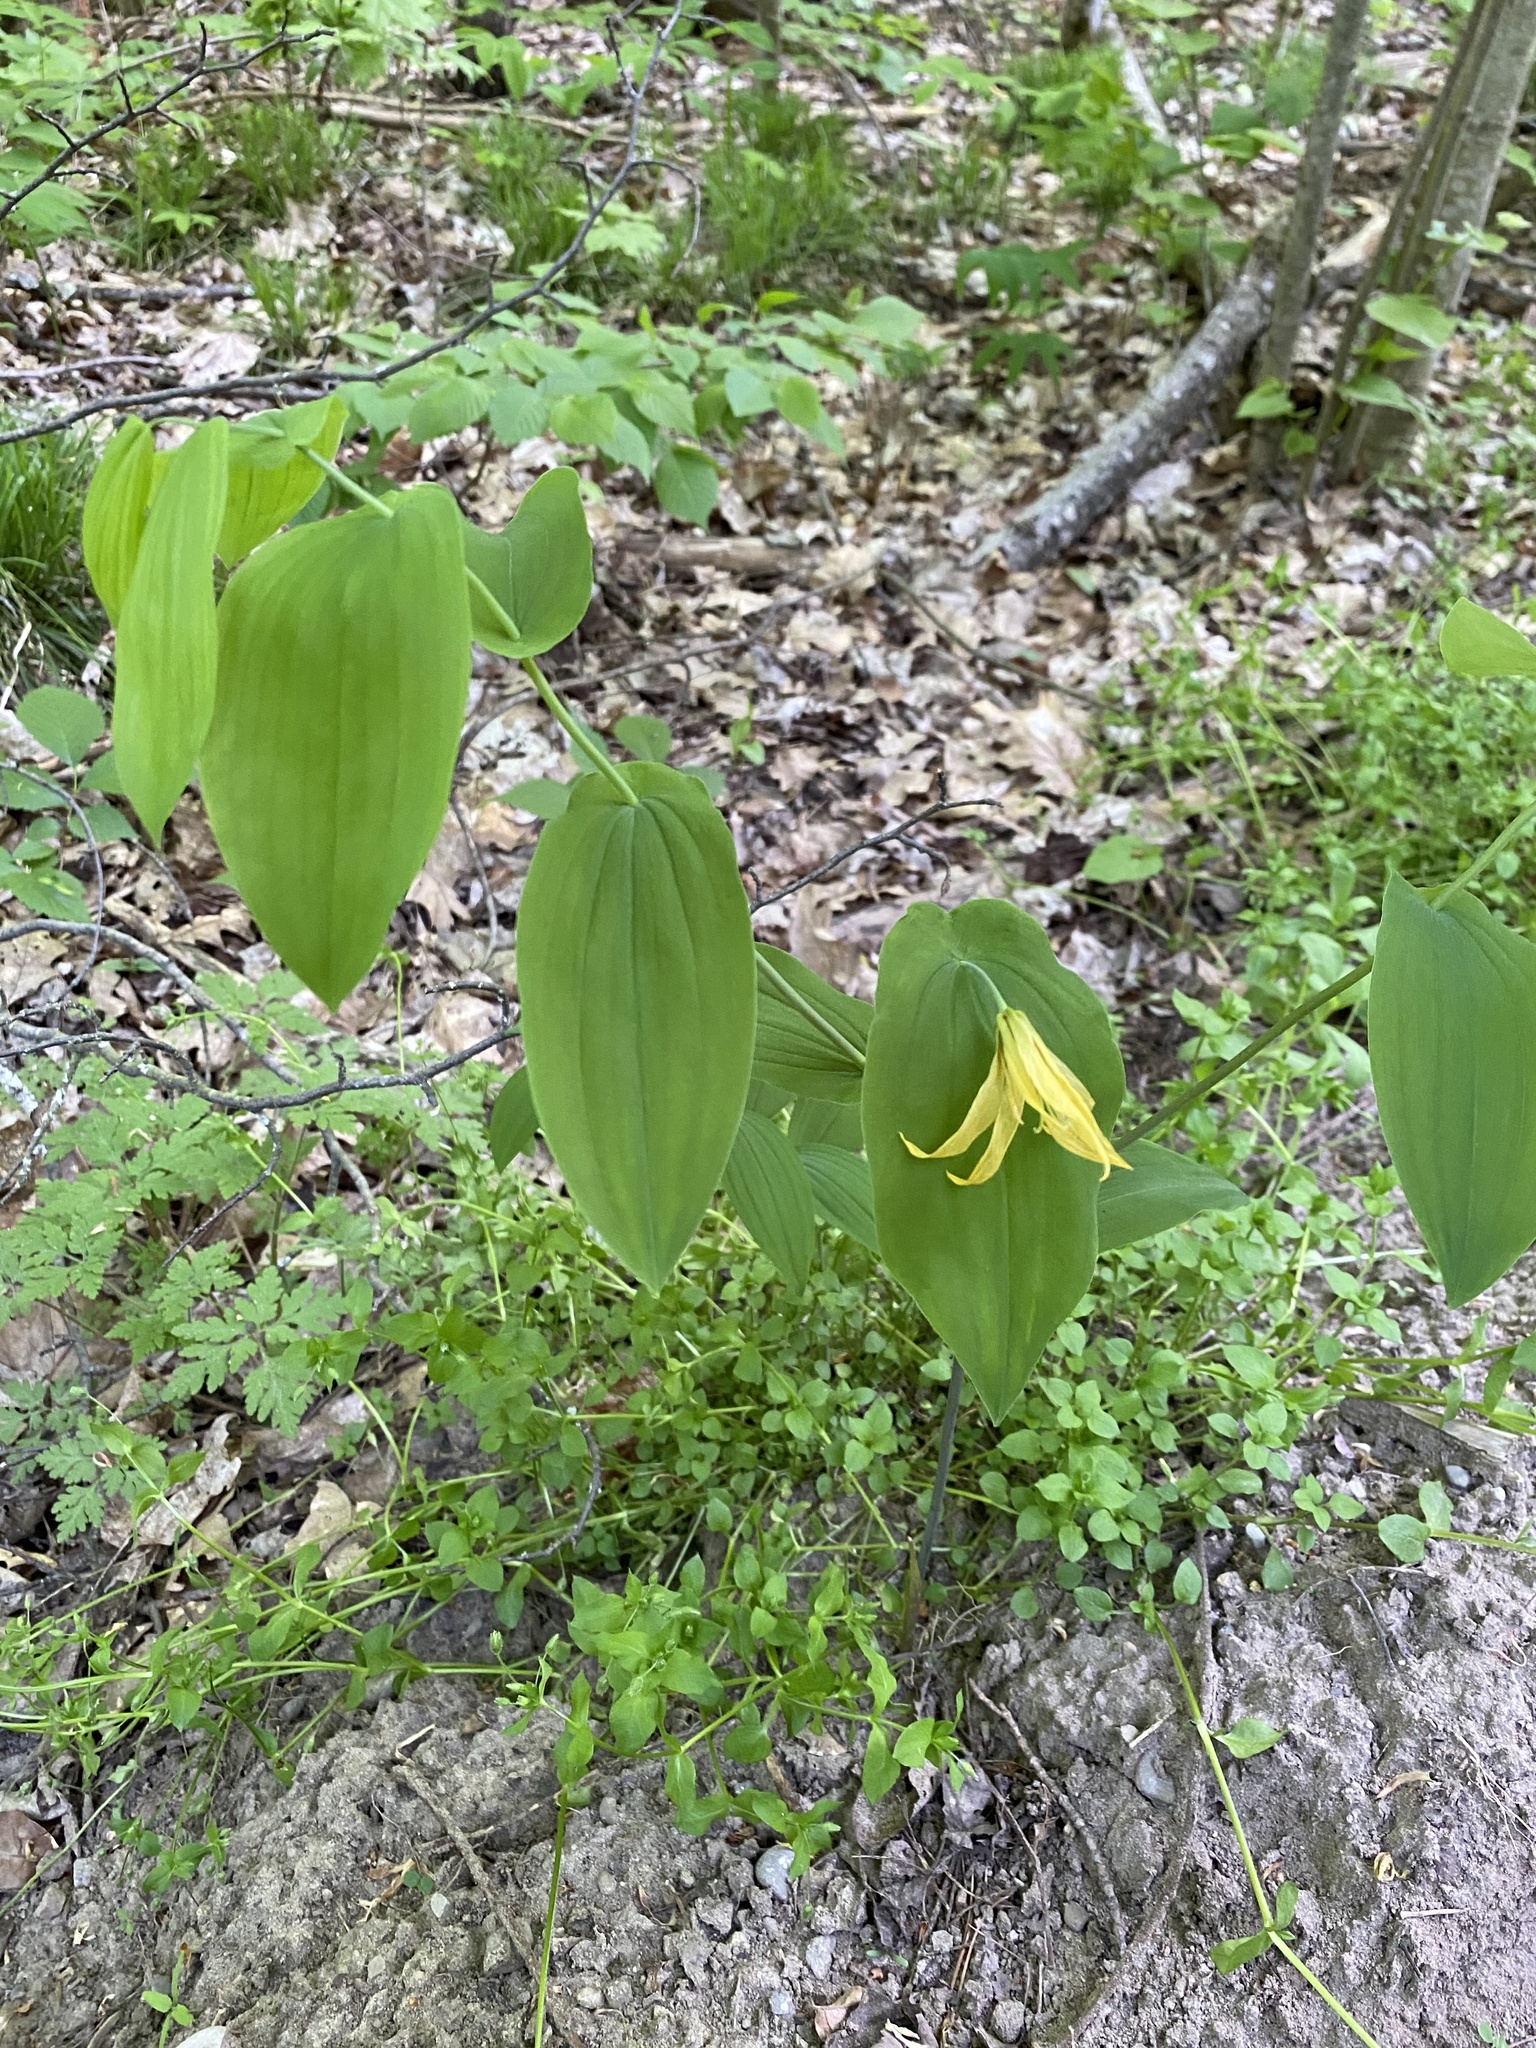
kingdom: Plantae
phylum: Tracheophyta
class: Liliopsida
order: Liliales
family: Colchicaceae
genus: Uvularia
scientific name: Uvularia grandiflora
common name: Bellwort
